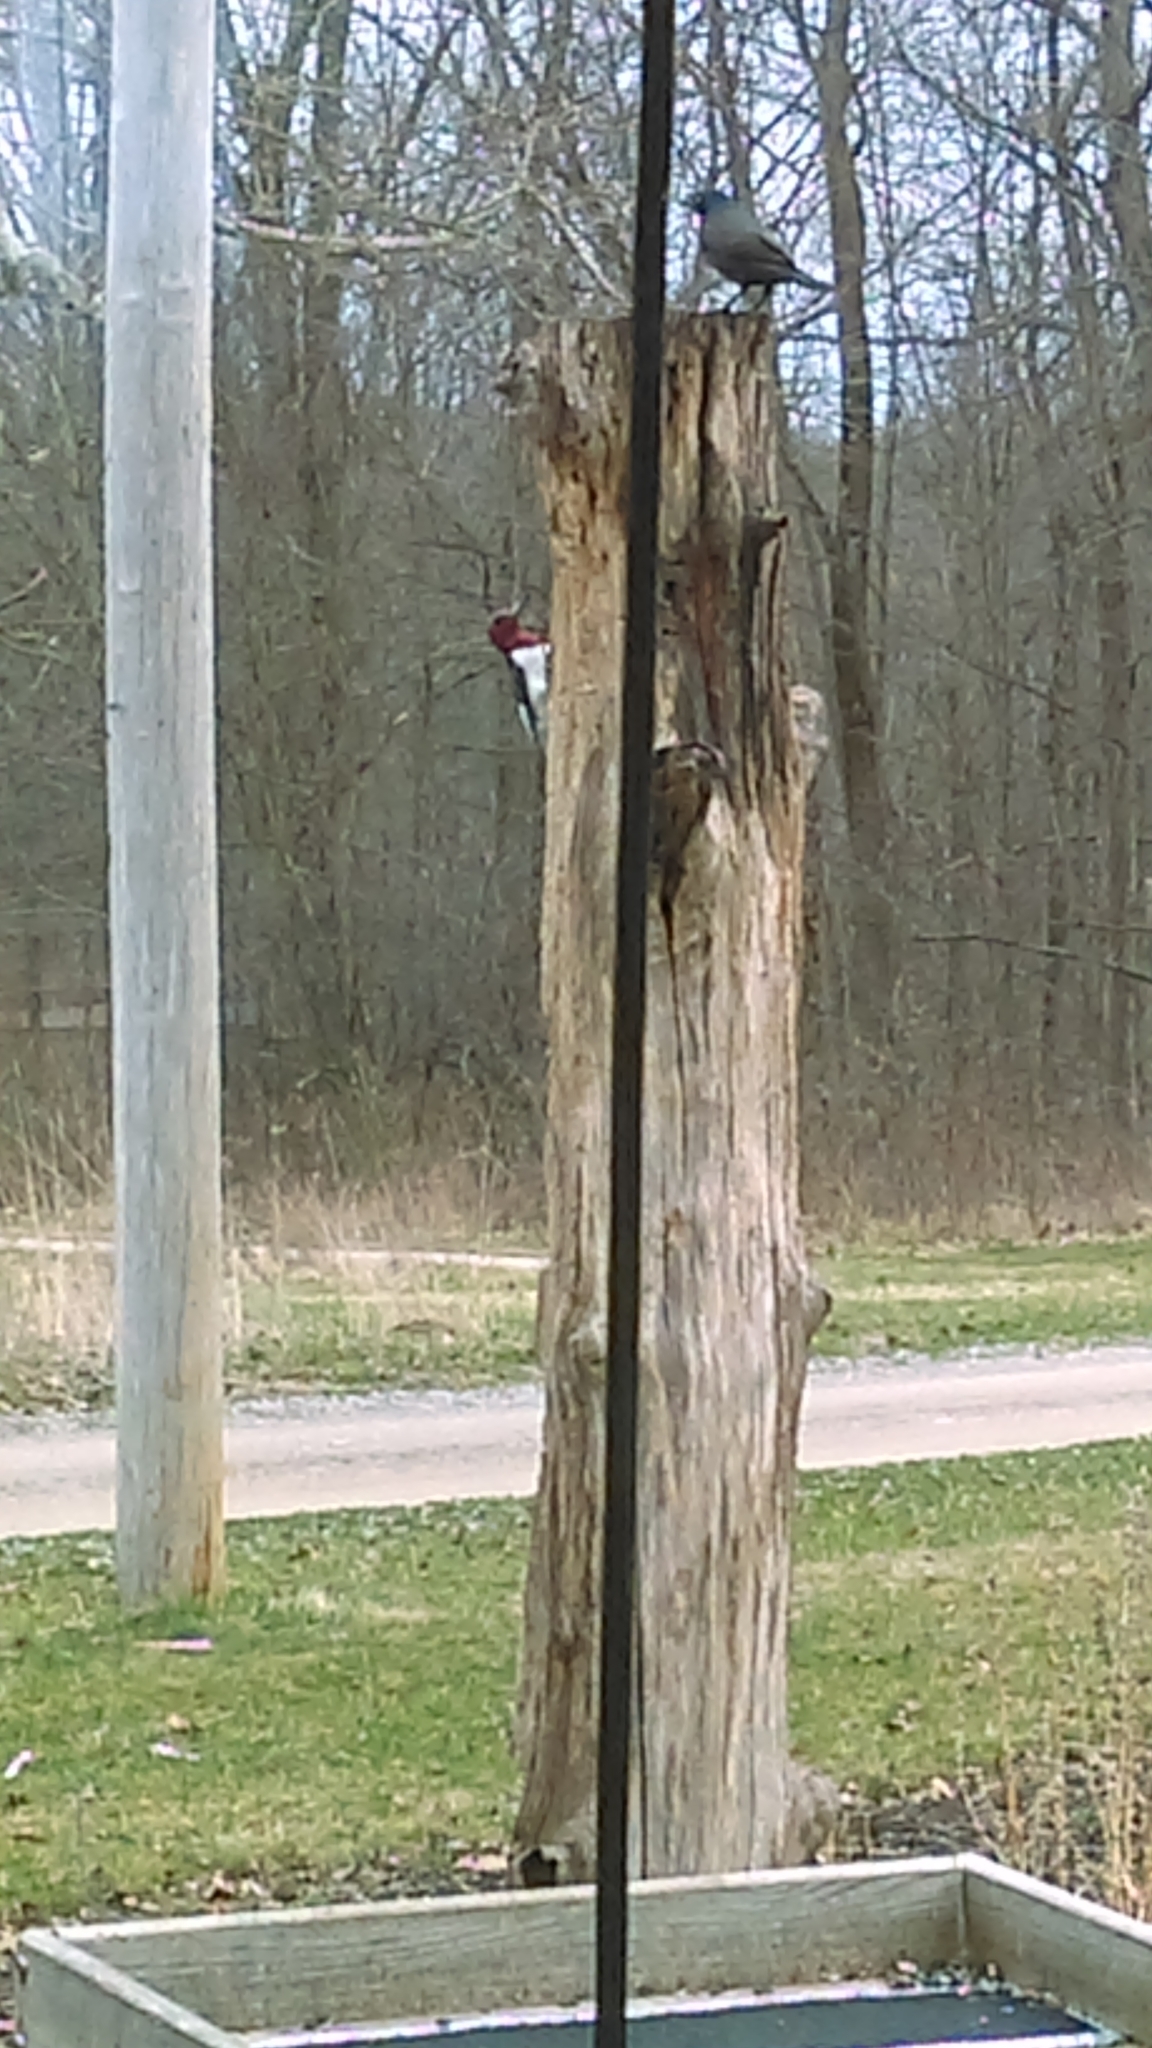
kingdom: Animalia
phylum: Chordata
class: Aves
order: Piciformes
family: Picidae
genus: Melanerpes
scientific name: Melanerpes erythrocephalus
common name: Red-headed woodpecker
